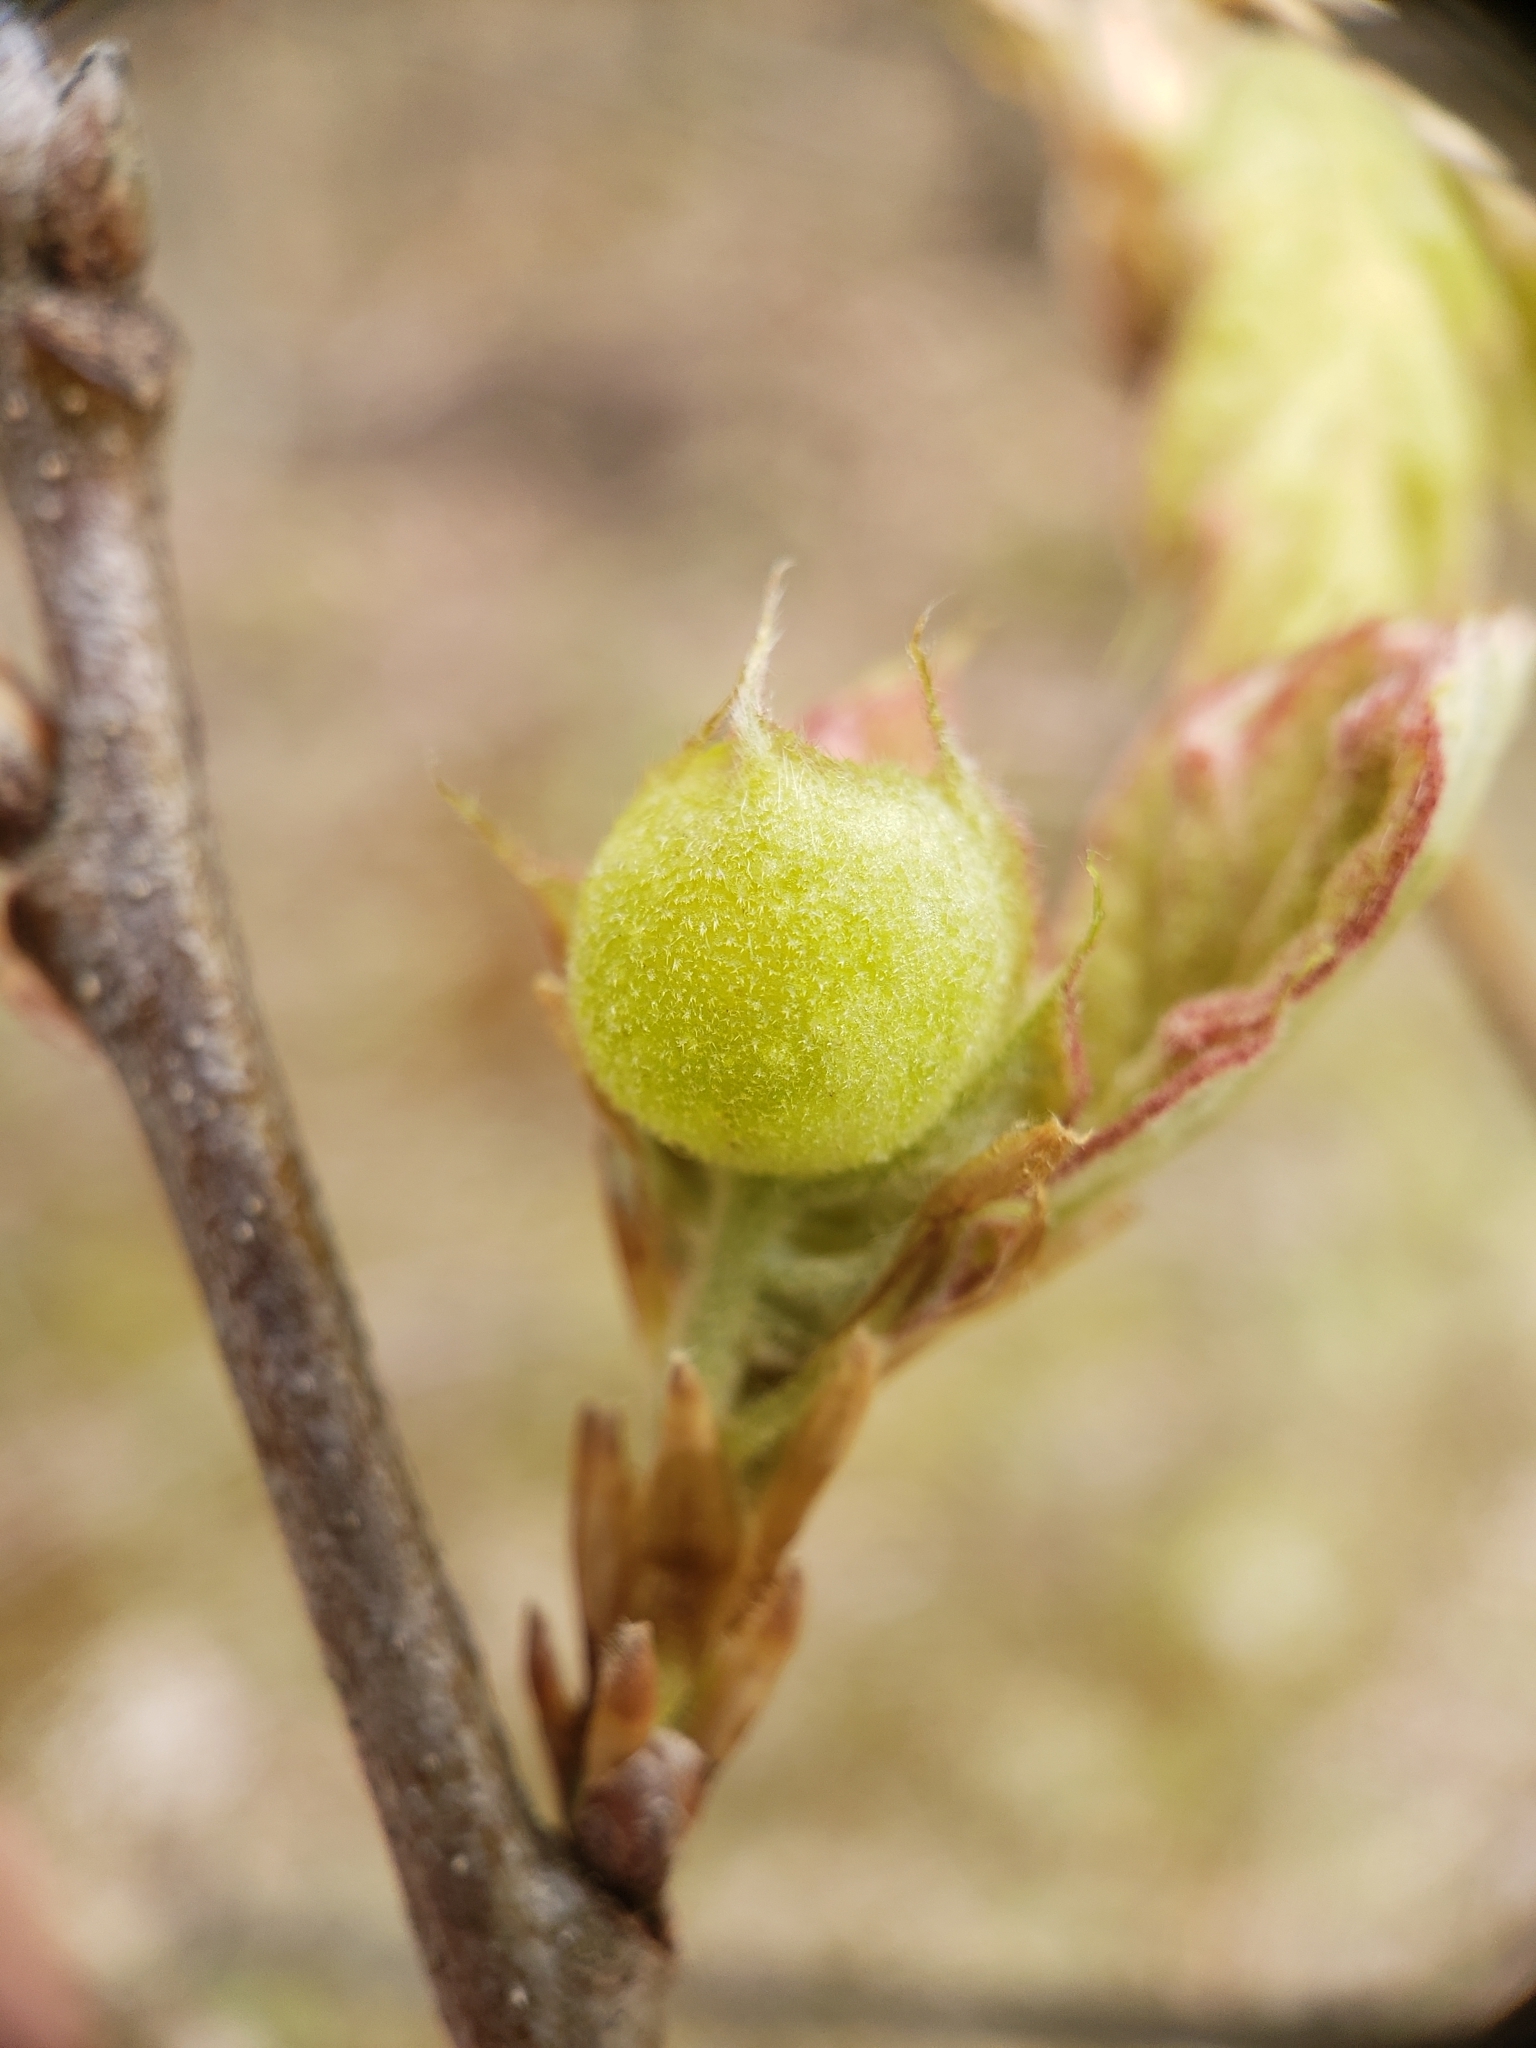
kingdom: Animalia
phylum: Arthropoda
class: Insecta
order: Hymenoptera
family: Cynipidae
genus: Dryocosmus
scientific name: Dryocosmus quercuspalustris
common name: Succulent oak gall wasp
